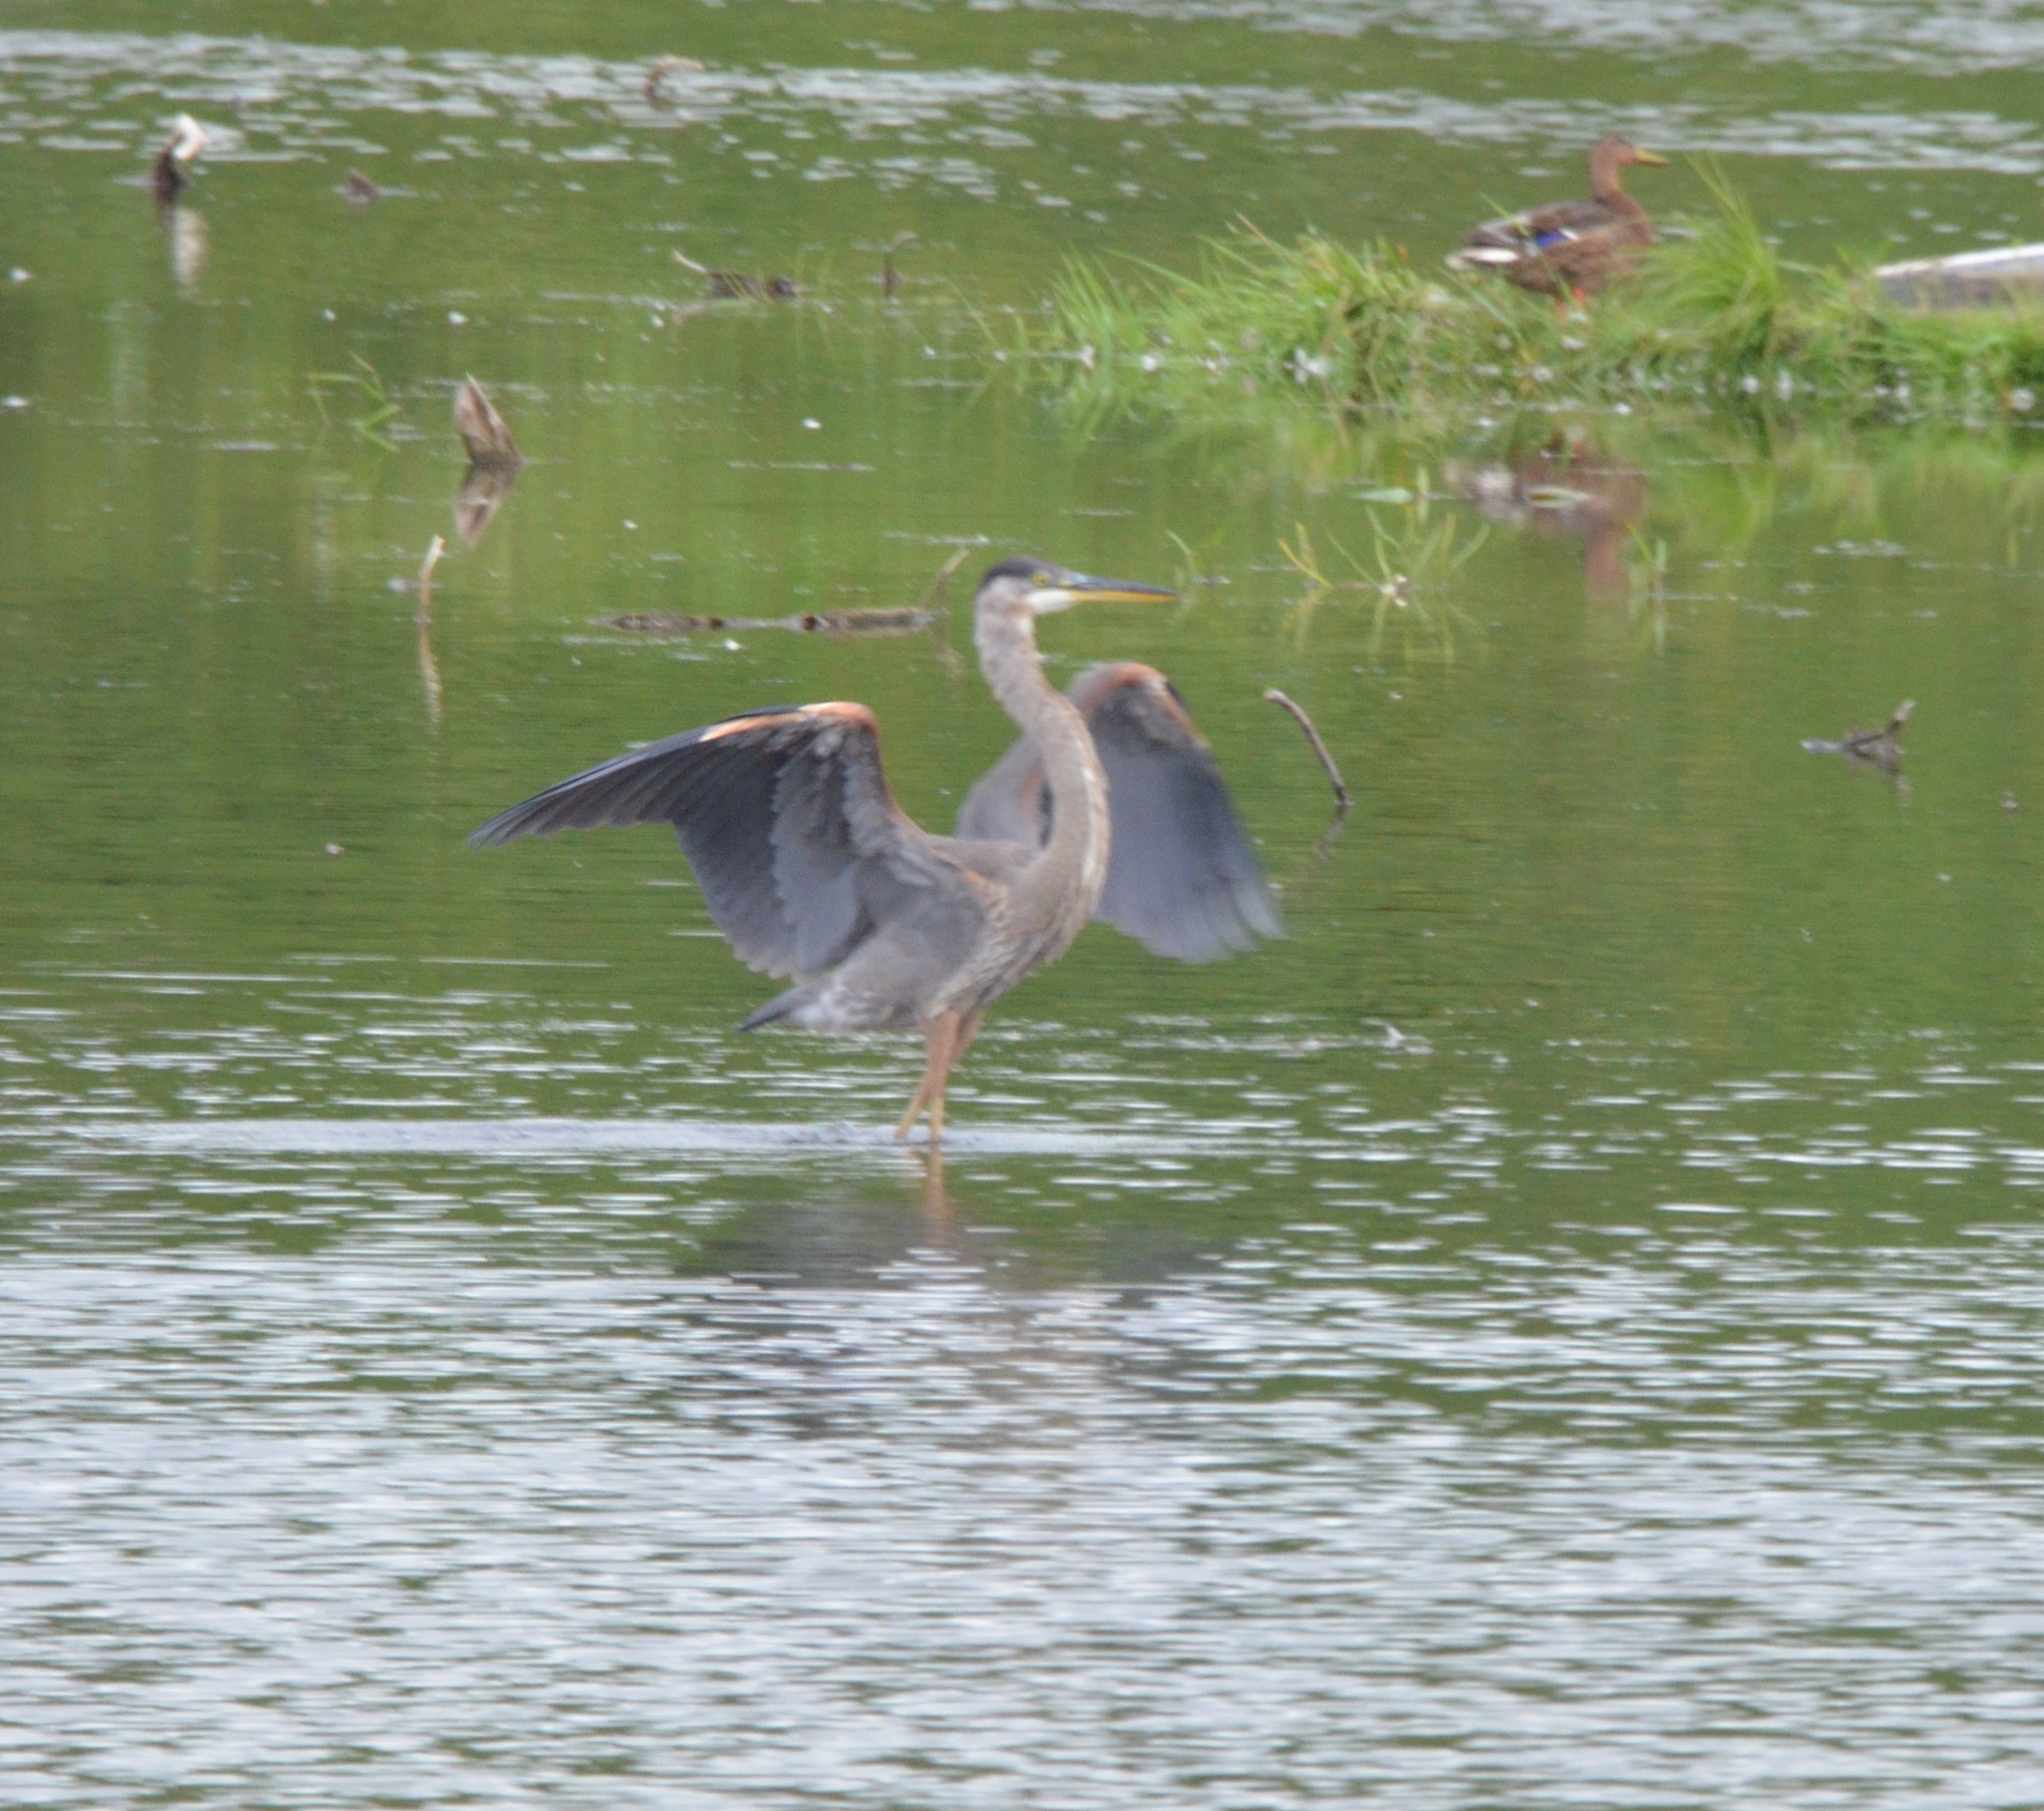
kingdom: Animalia
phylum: Chordata
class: Aves
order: Pelecaniformes
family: Ardeidae
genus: Ardea
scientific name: Ardea herodias
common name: Great blue heron
